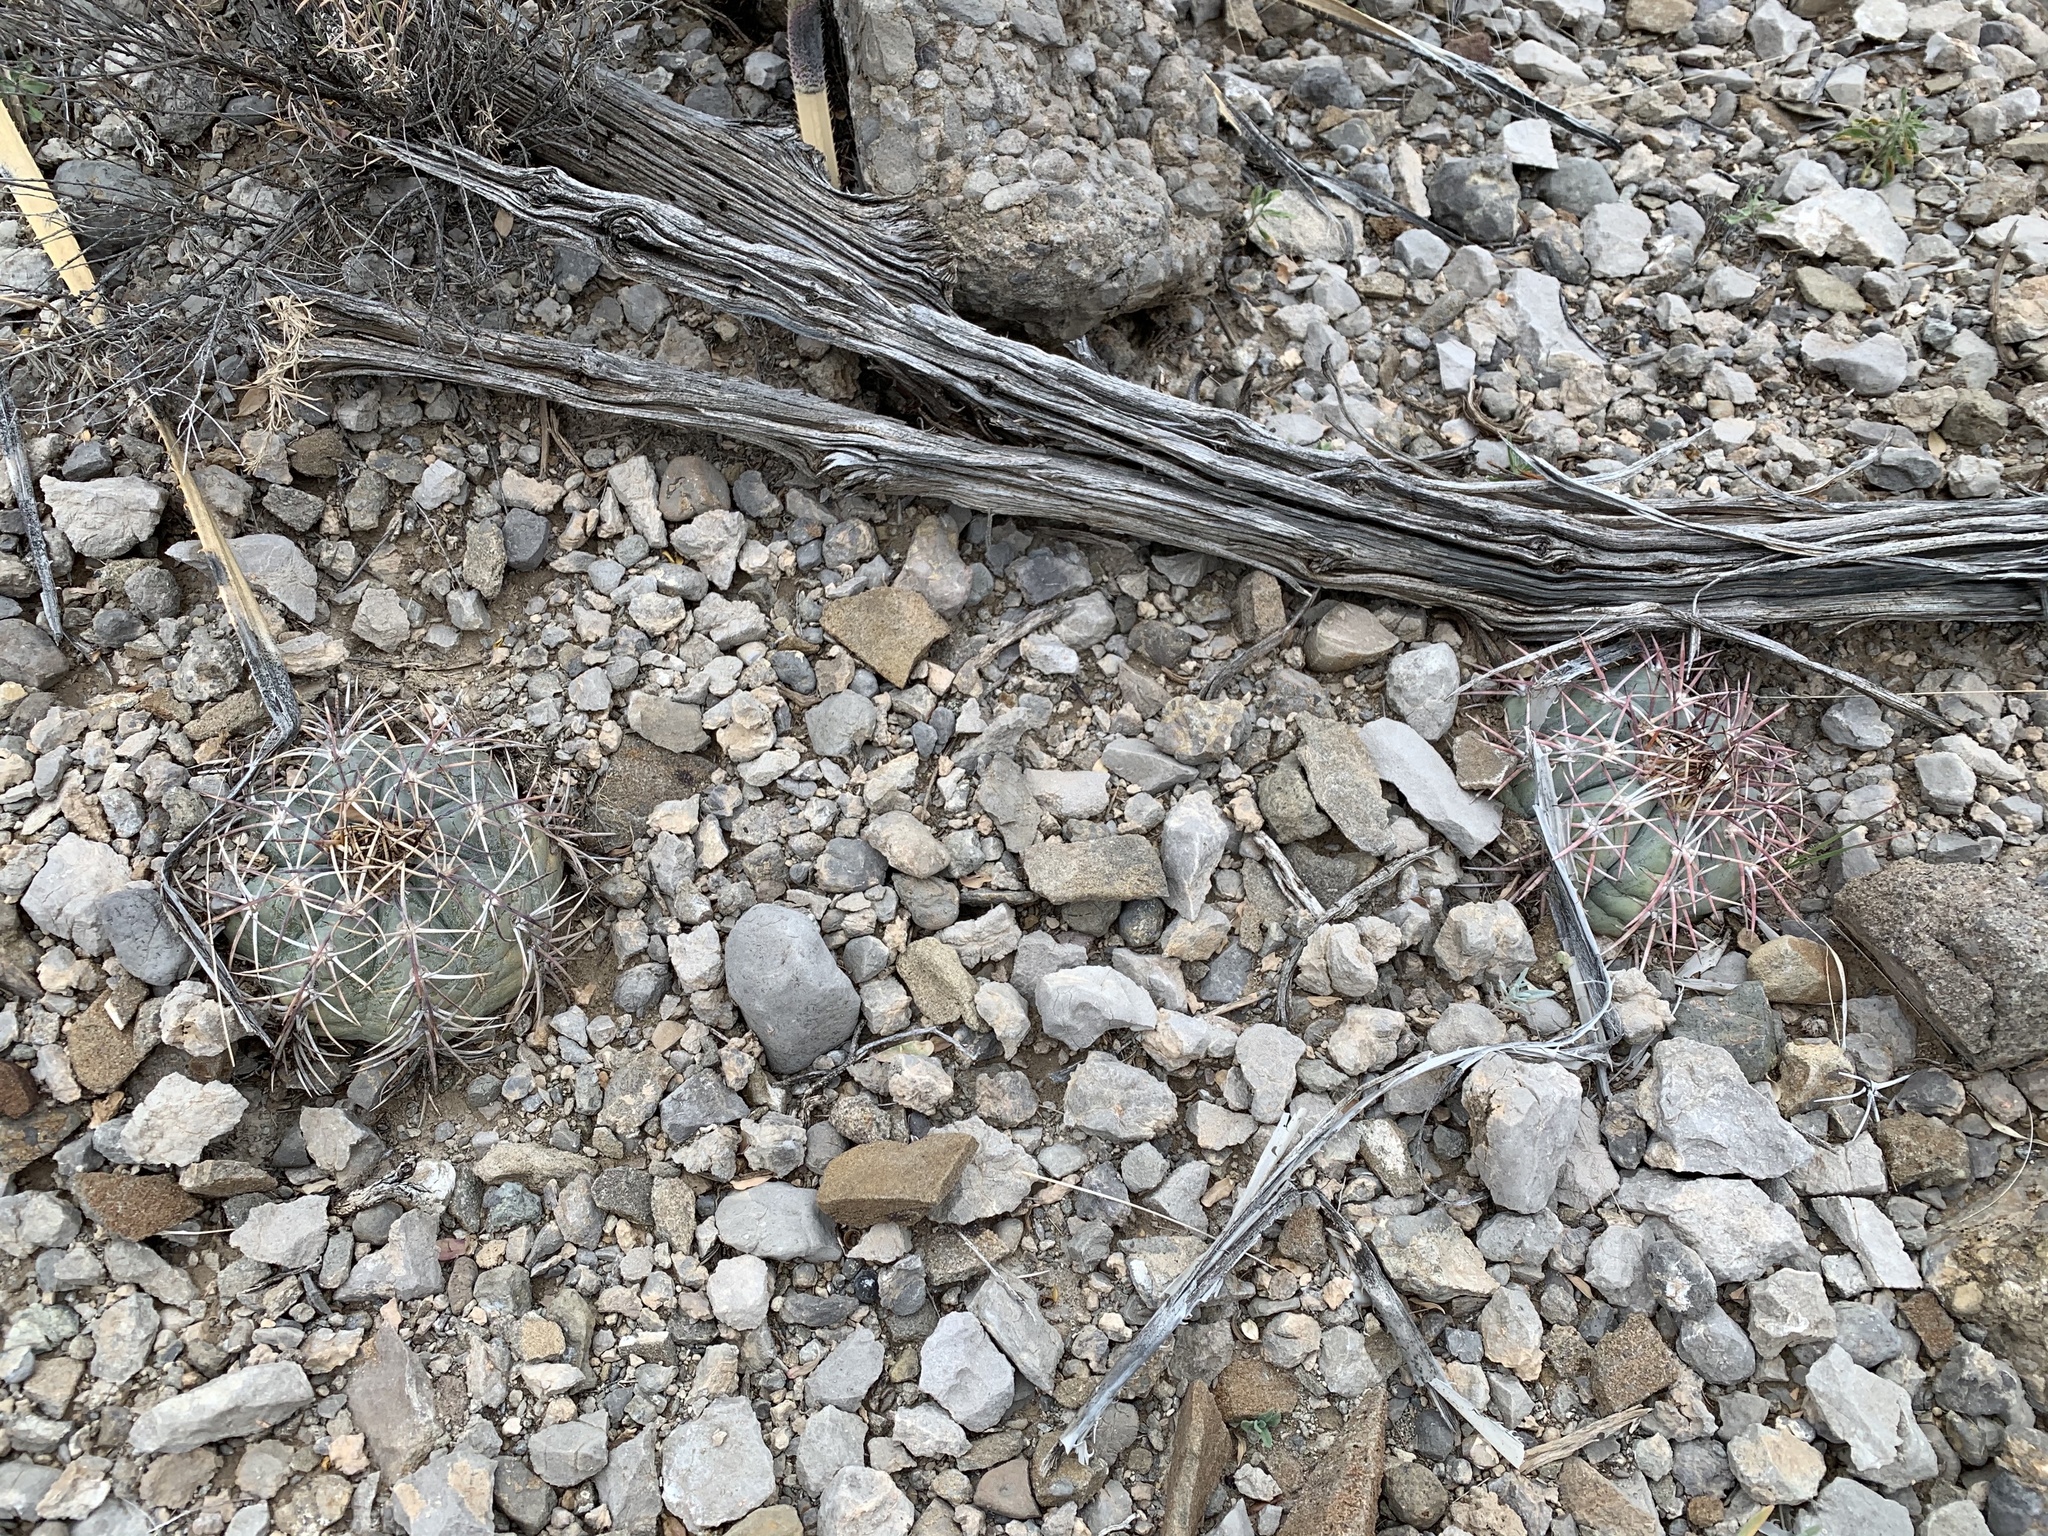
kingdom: Plantae
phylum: Tracheophyta
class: Magnoliopsida
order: Caryophyllales
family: Cactaceae
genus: Echinocactus
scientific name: Echinocactus horizonthalonius
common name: Devilshead
